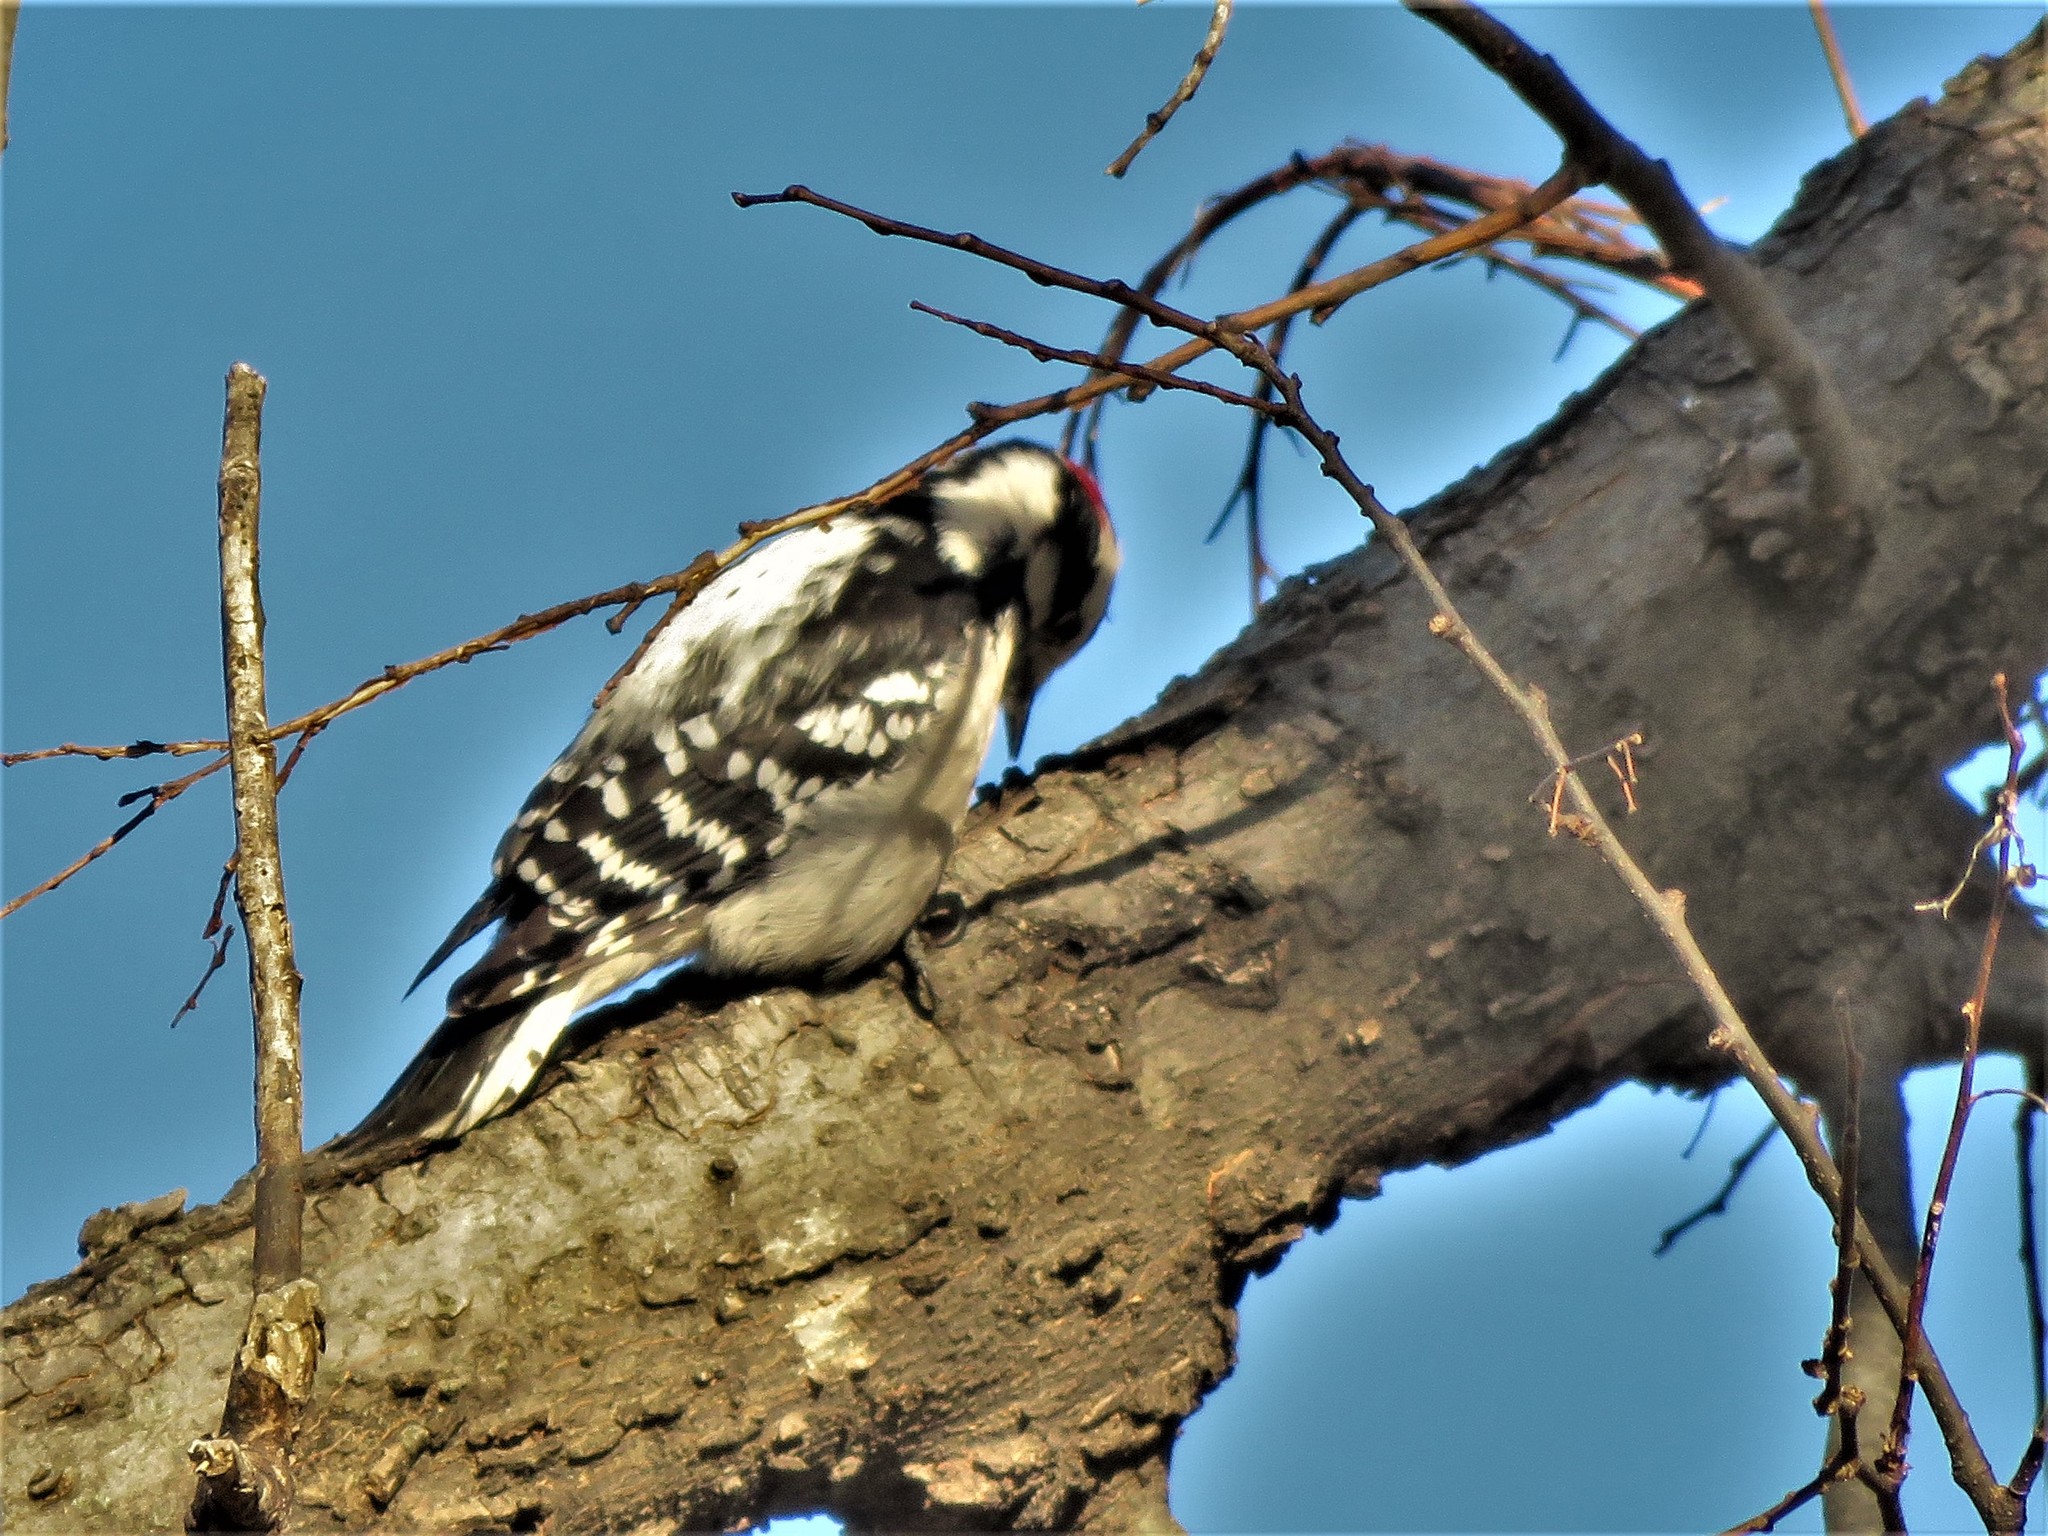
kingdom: Animalia
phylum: Chordata
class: Aves
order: Piciformes
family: Picidae
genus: Dryobates
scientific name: Dryobates pubescens
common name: Downy woodpecker
